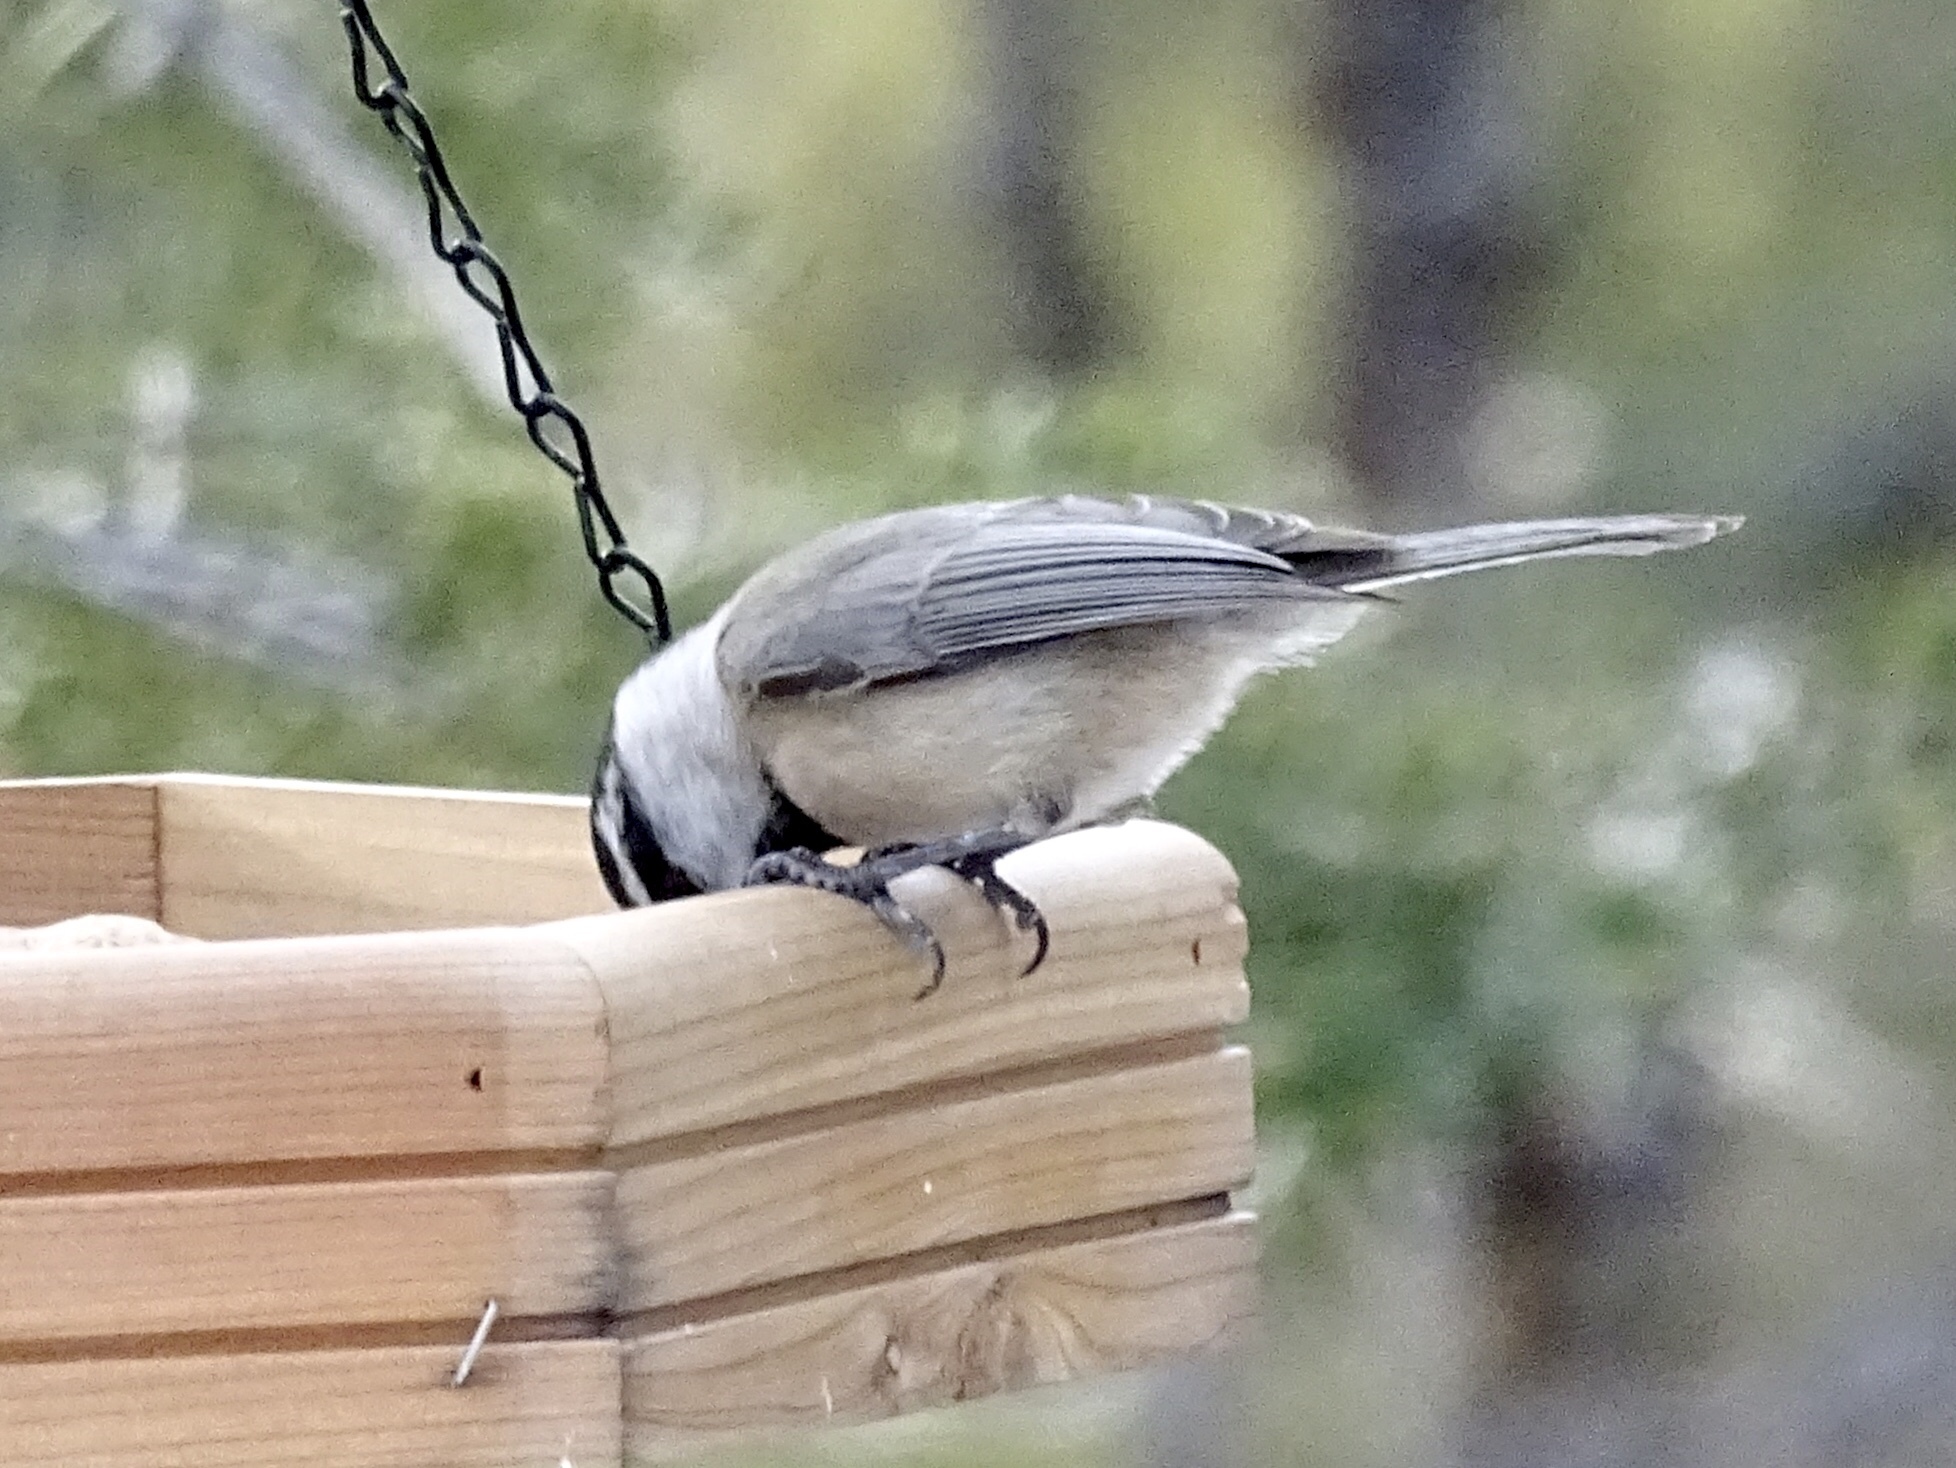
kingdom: Animalia
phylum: Chordata
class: Aves
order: Passeriformes
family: Paridae
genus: Poecile
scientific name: Poecile gambeli
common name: Mountain chickadee
